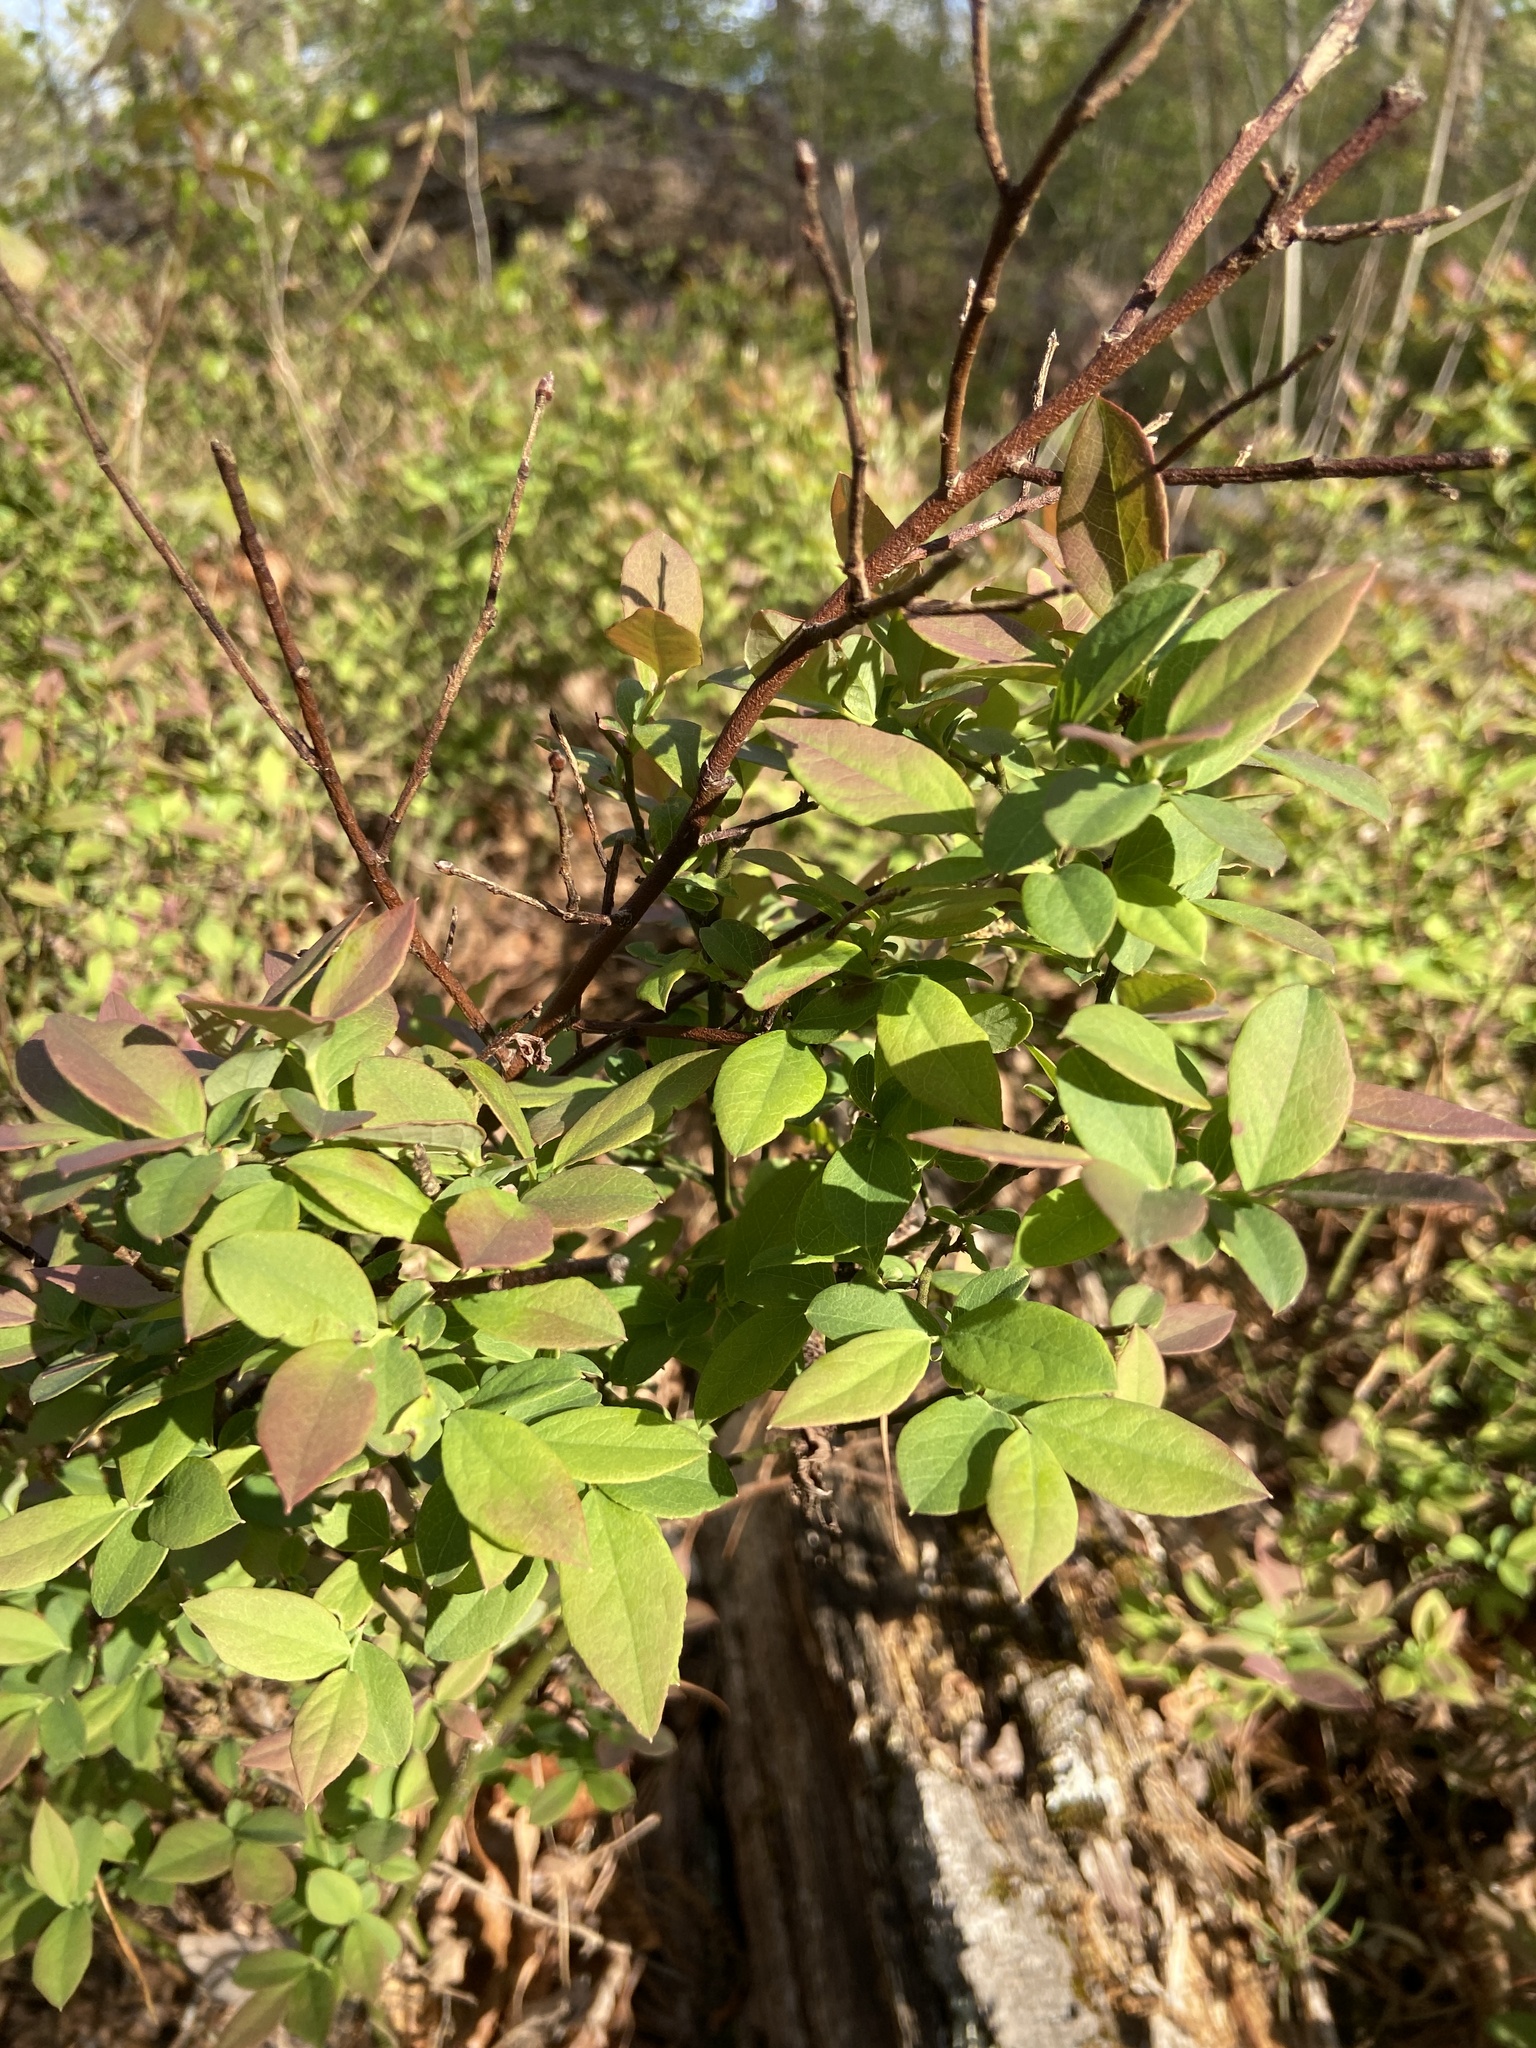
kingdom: Plantae
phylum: Tracheophyta
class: Magnoliopsida
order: Ericales
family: Ericaceae
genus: Vaccinium
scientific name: Vaccinium pallidum
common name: Blue ridge blueberry
